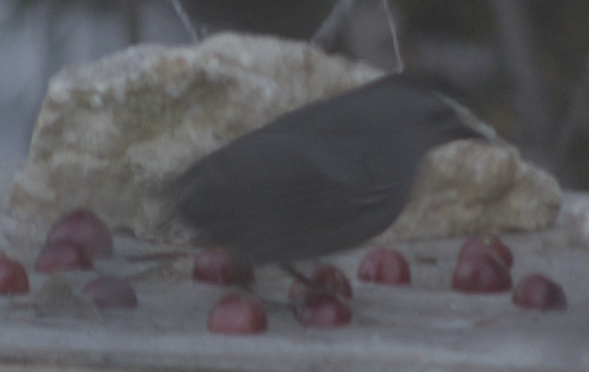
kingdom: Animalia
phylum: Chordata
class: Aves
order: Passeriformes
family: Mimidae
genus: Dumetella
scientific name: Dumetella carolinensis
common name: Gray catbird
